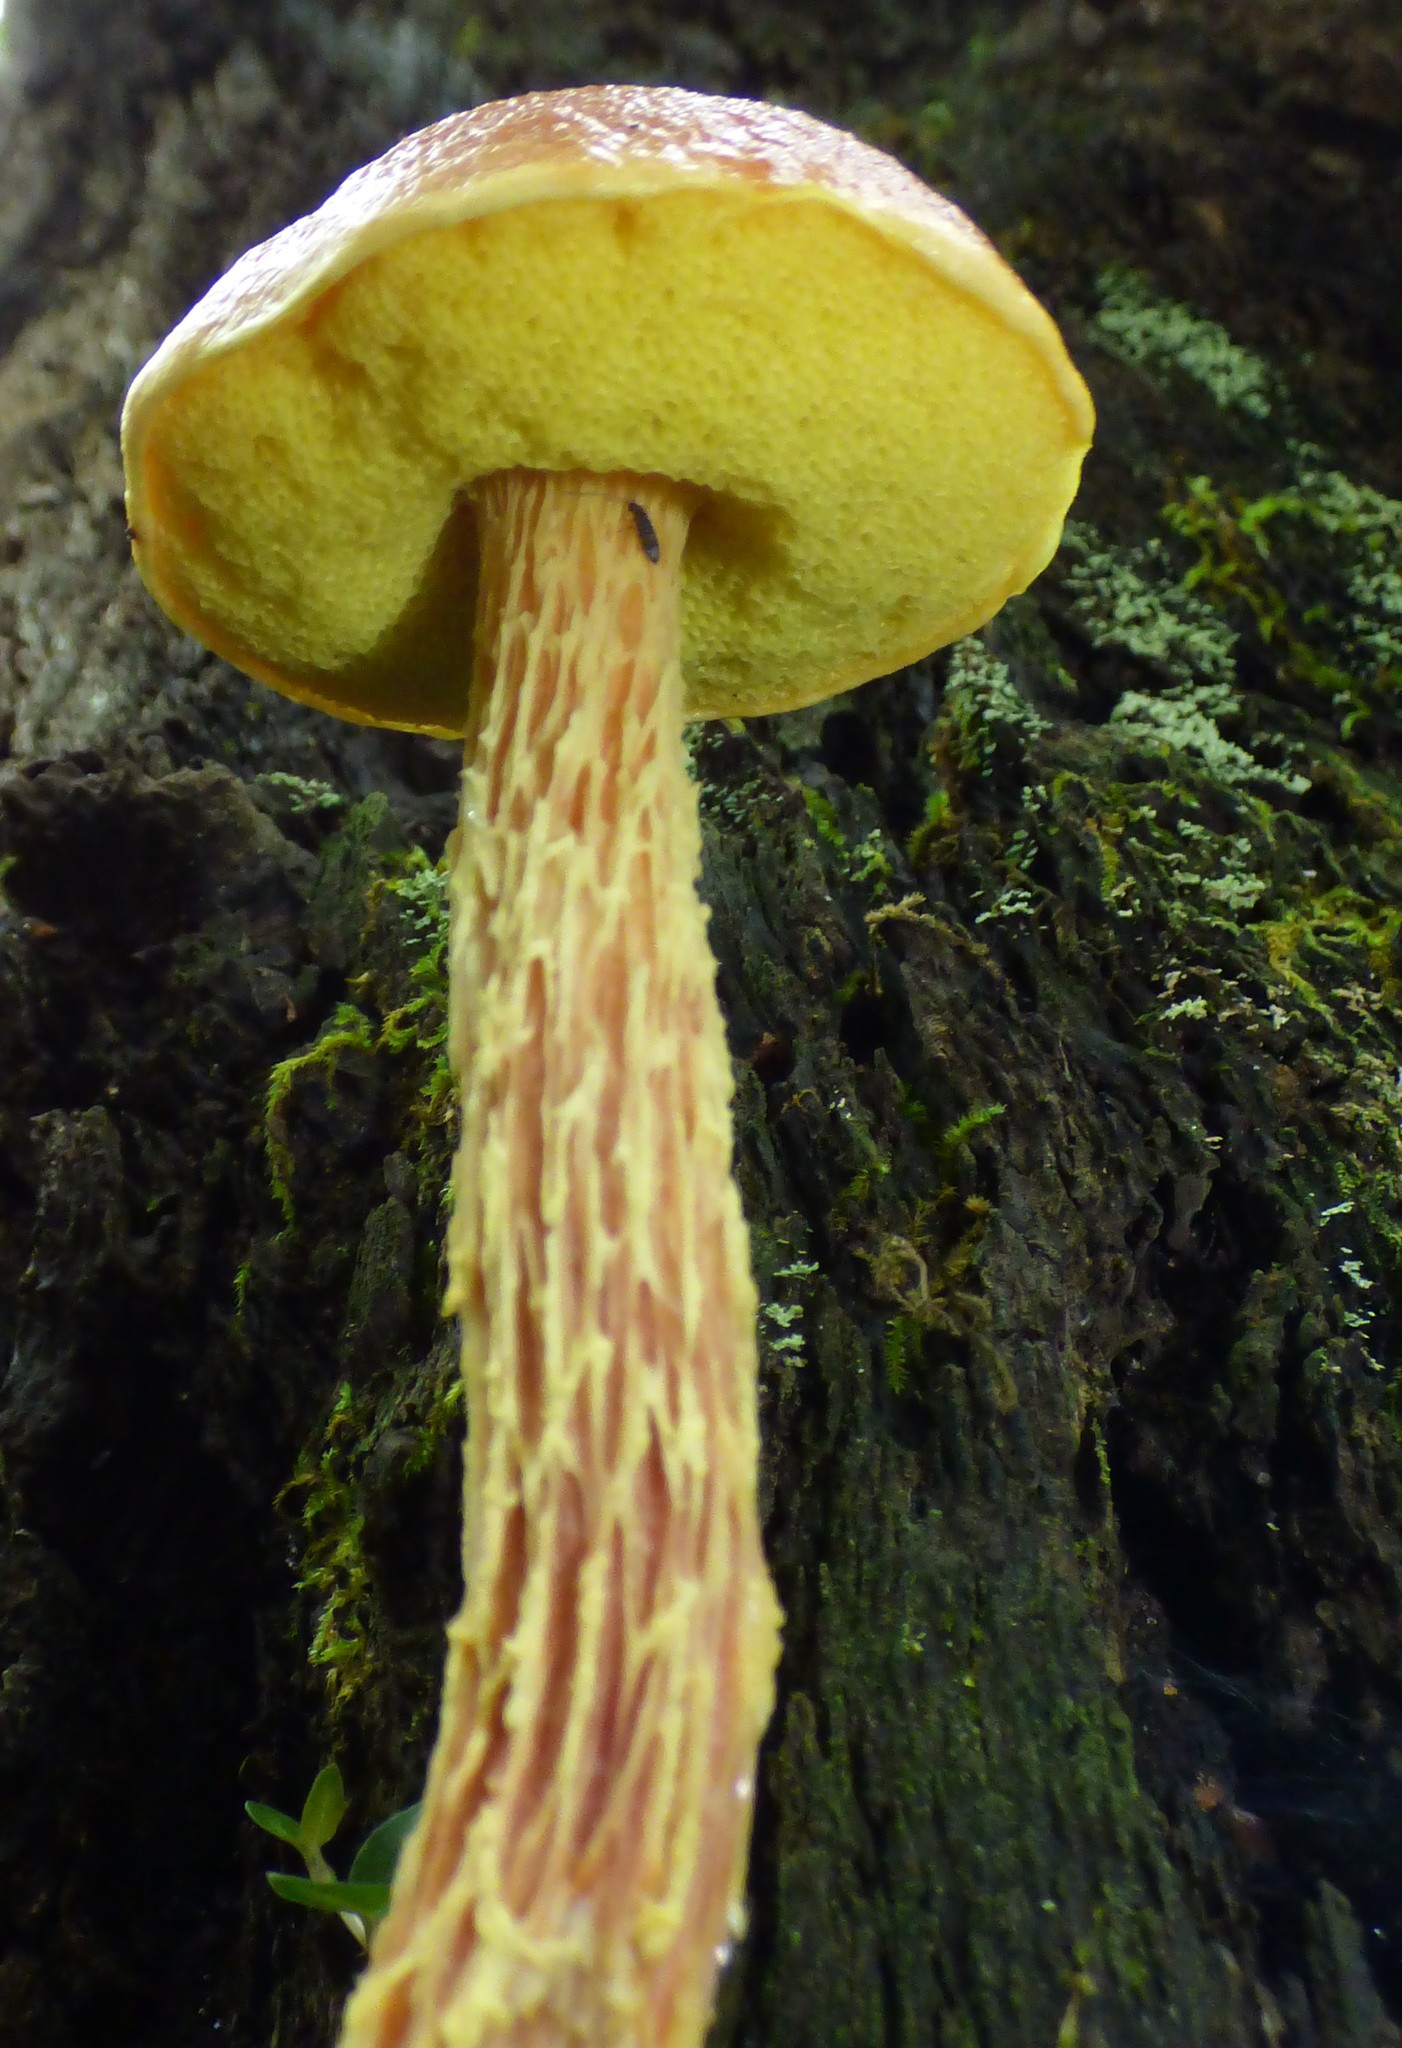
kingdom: Fungi
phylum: Basidiomycota
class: Agaricomycetes
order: Boletales
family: Boletaceae
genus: Aureoboletus
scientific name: Aureoboletus betula
